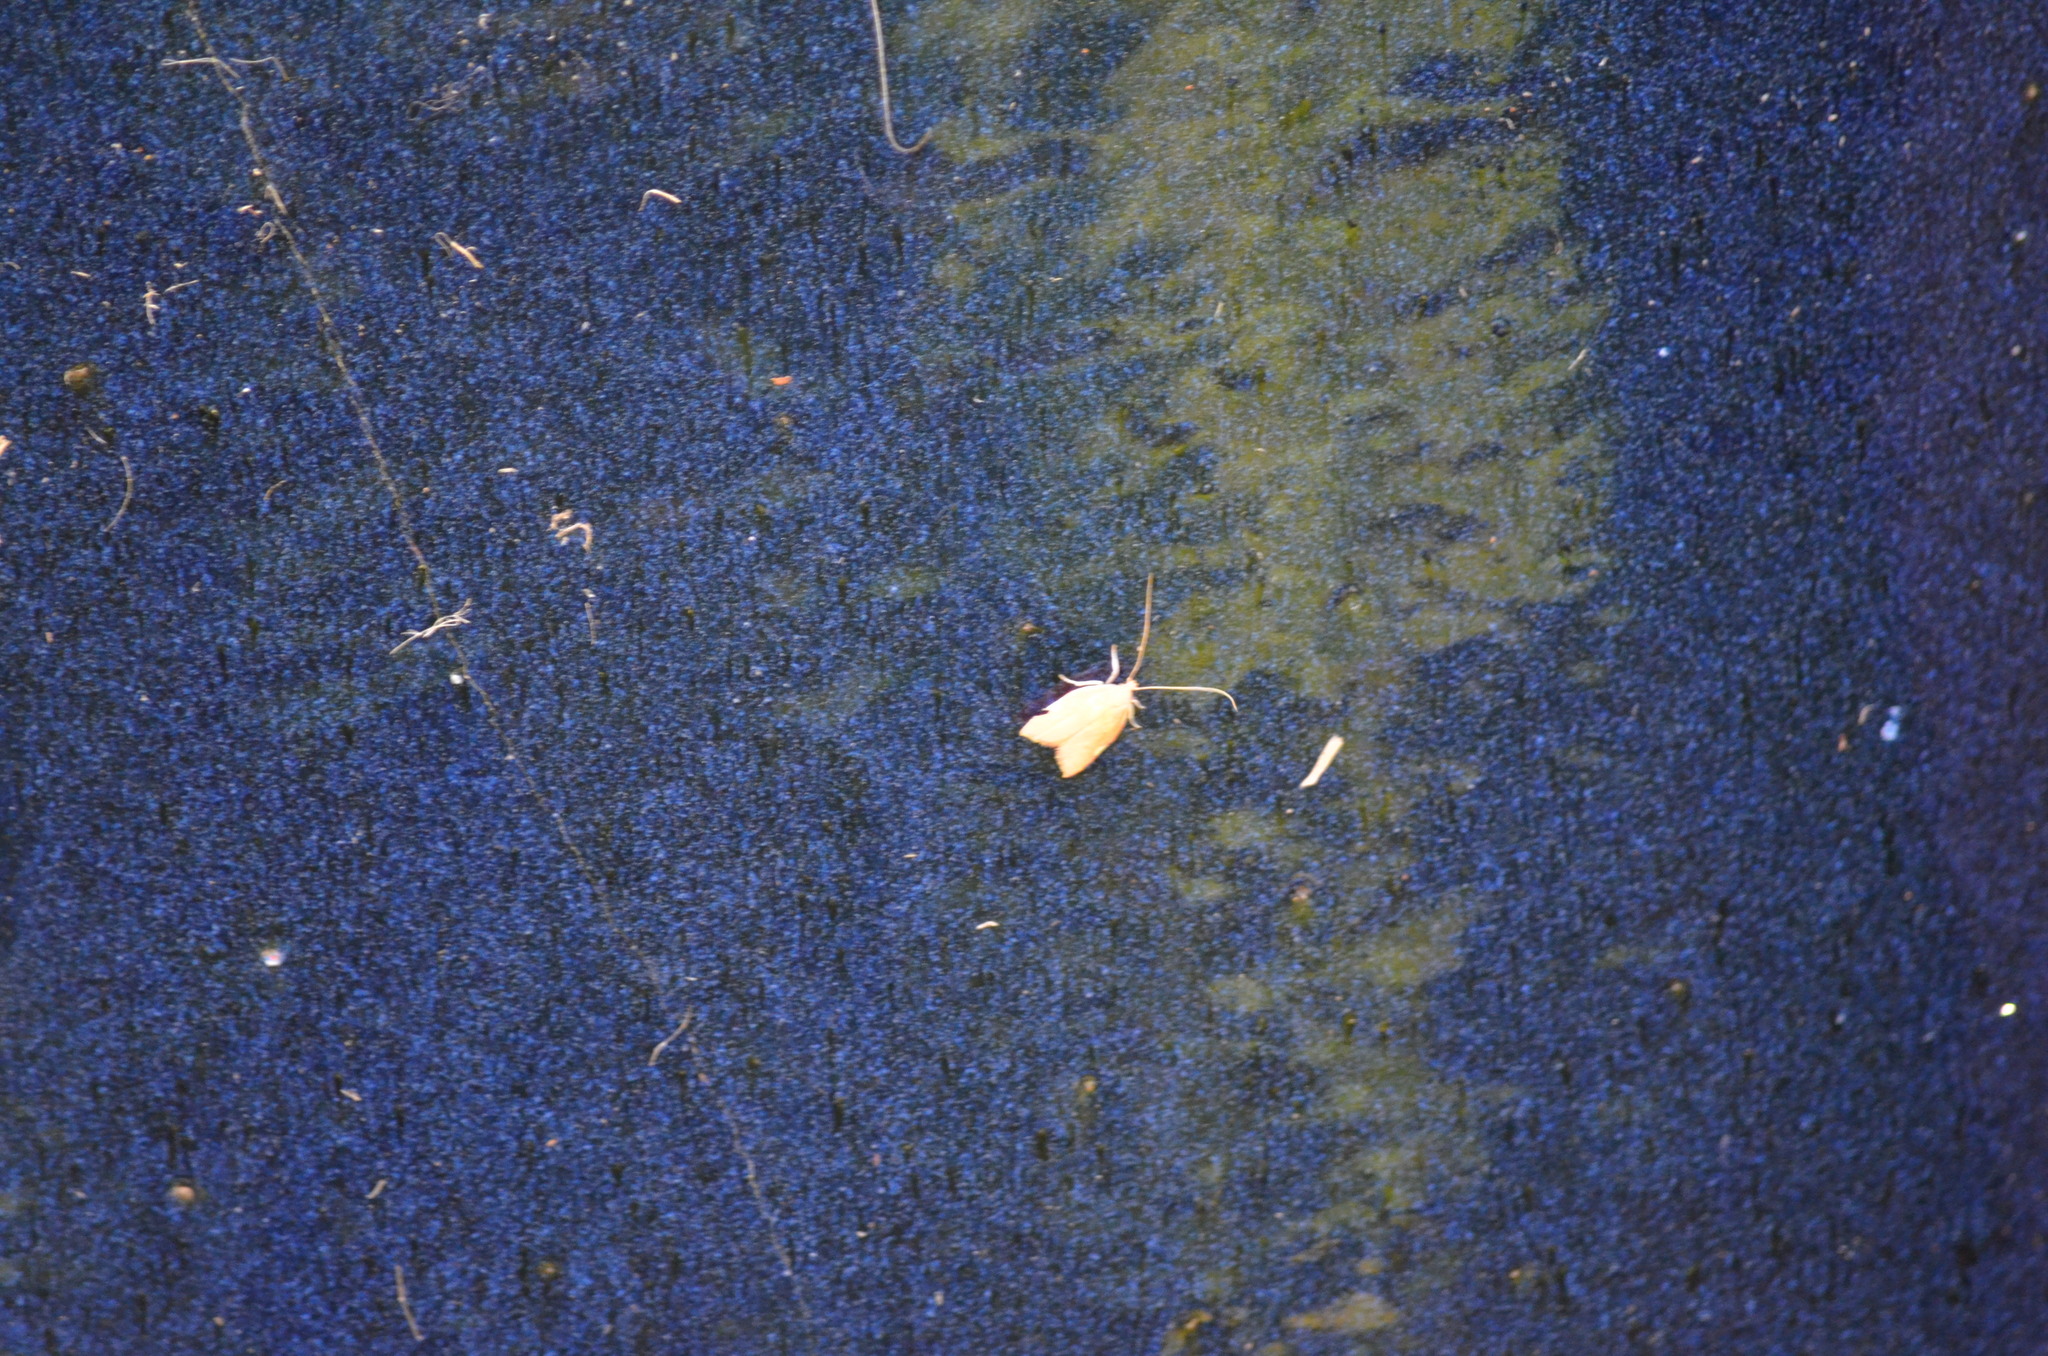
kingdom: Animalia
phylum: Arthropoda
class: Insecta
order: Lepidoptera
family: Peleopodidae
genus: Carcina
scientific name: Carcina quercana
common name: Moth
